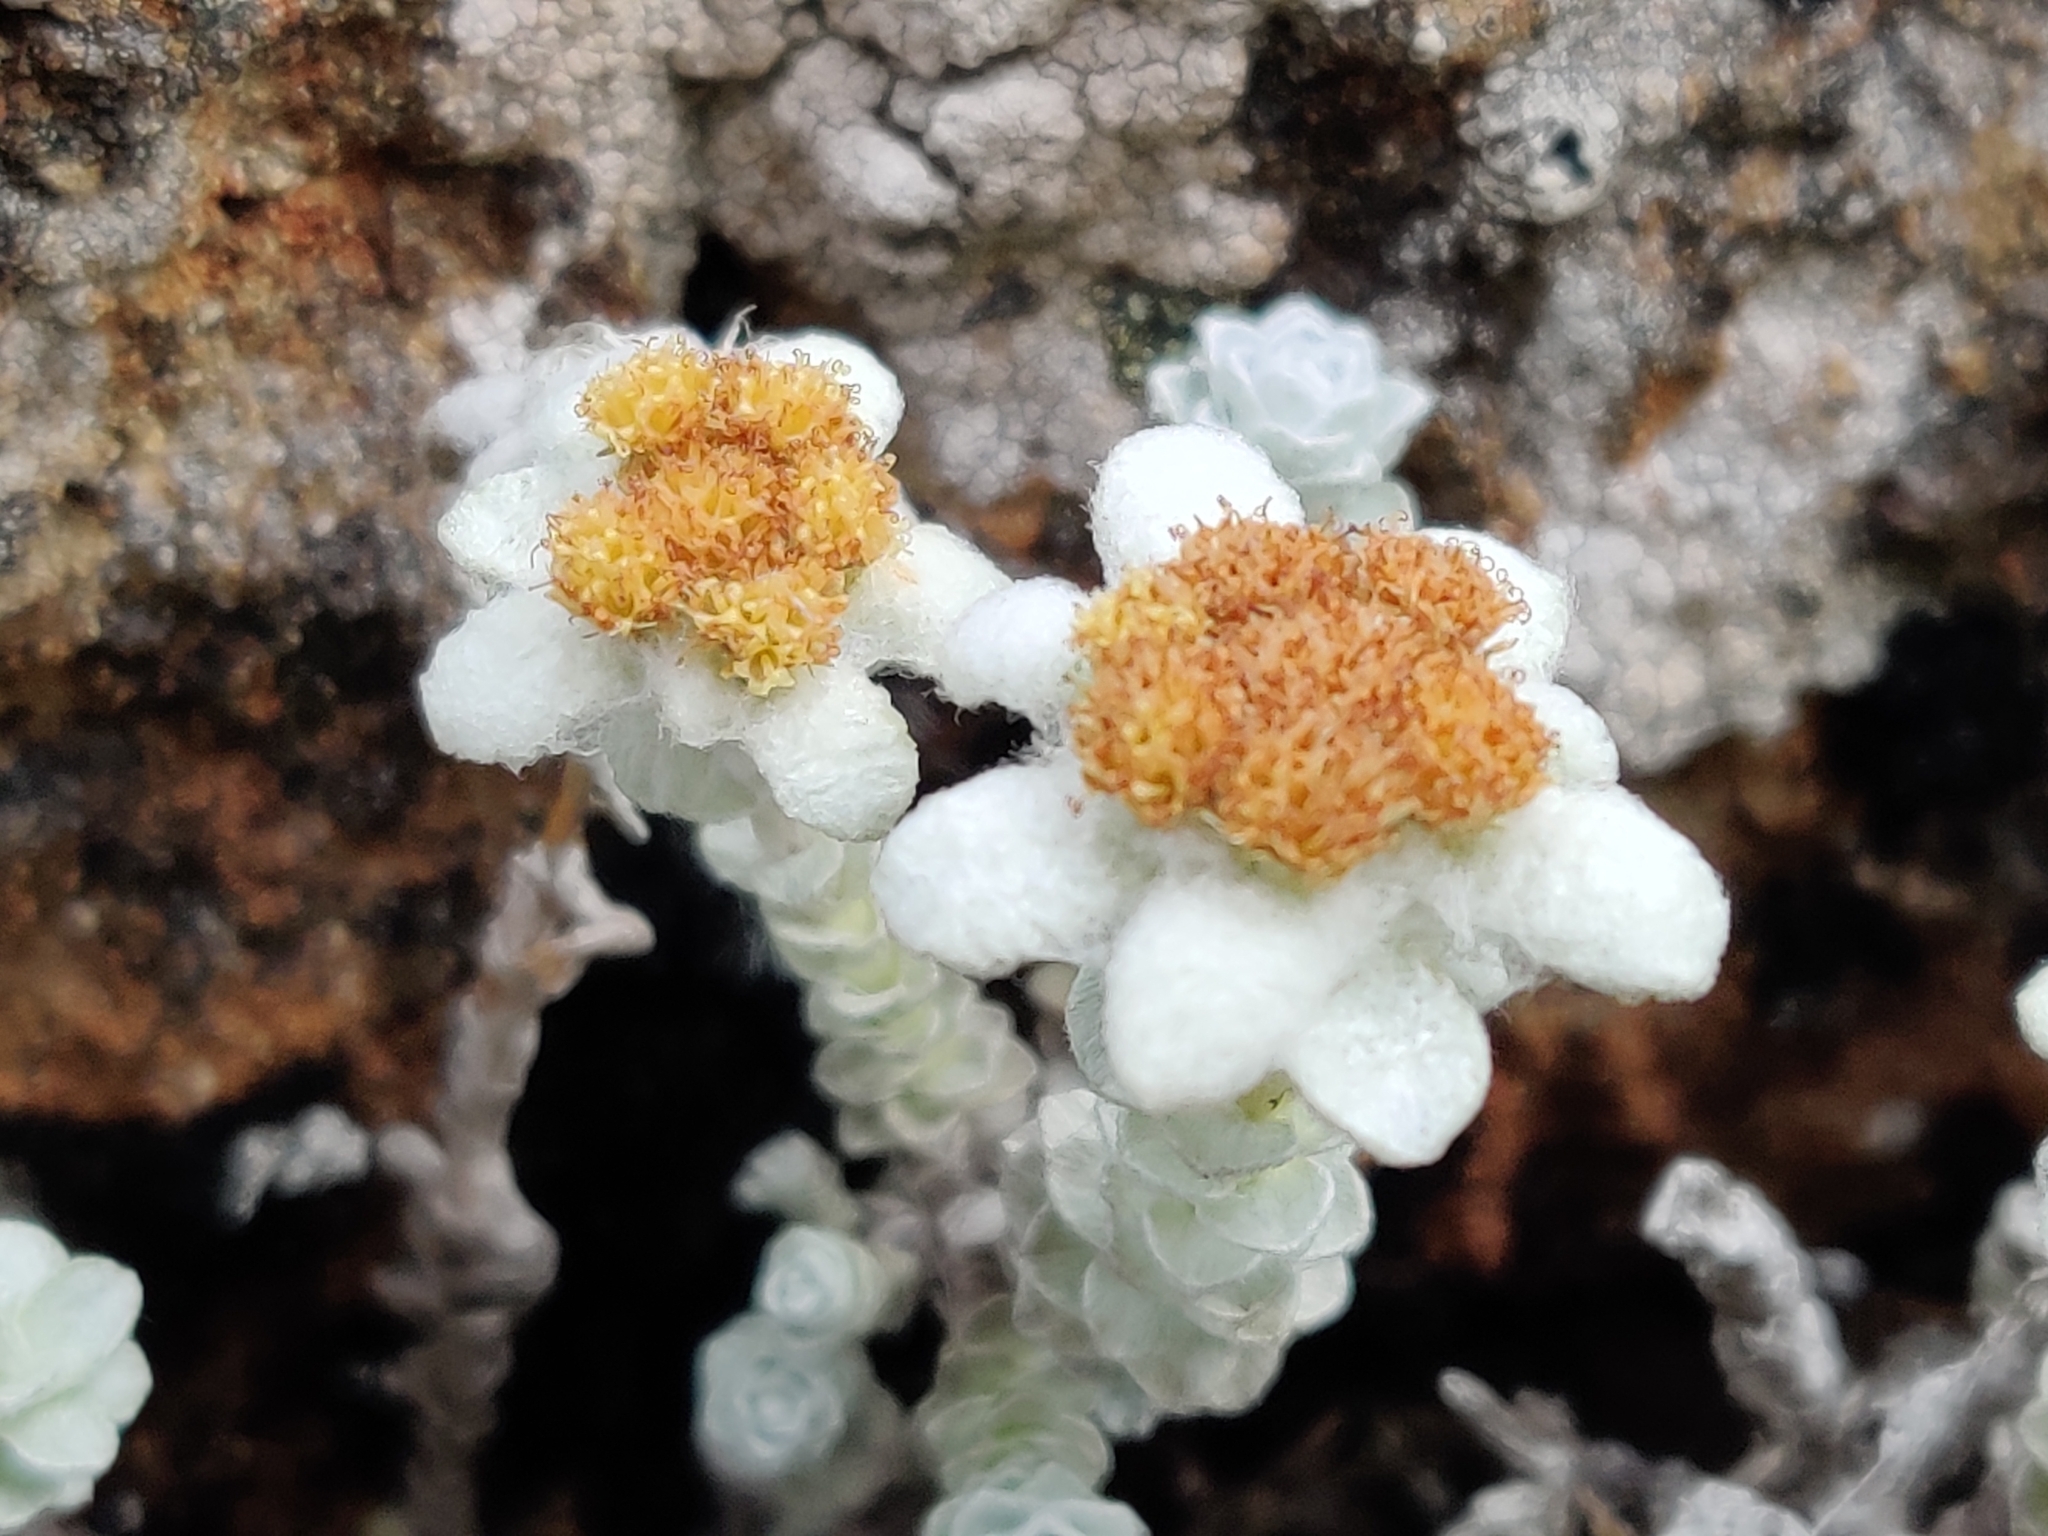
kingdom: Plantae
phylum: Tracheophyta
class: Magnoliopsida
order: Asterales
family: Asteraceae
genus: Leucogenes
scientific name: Leucogenes grandiceps
